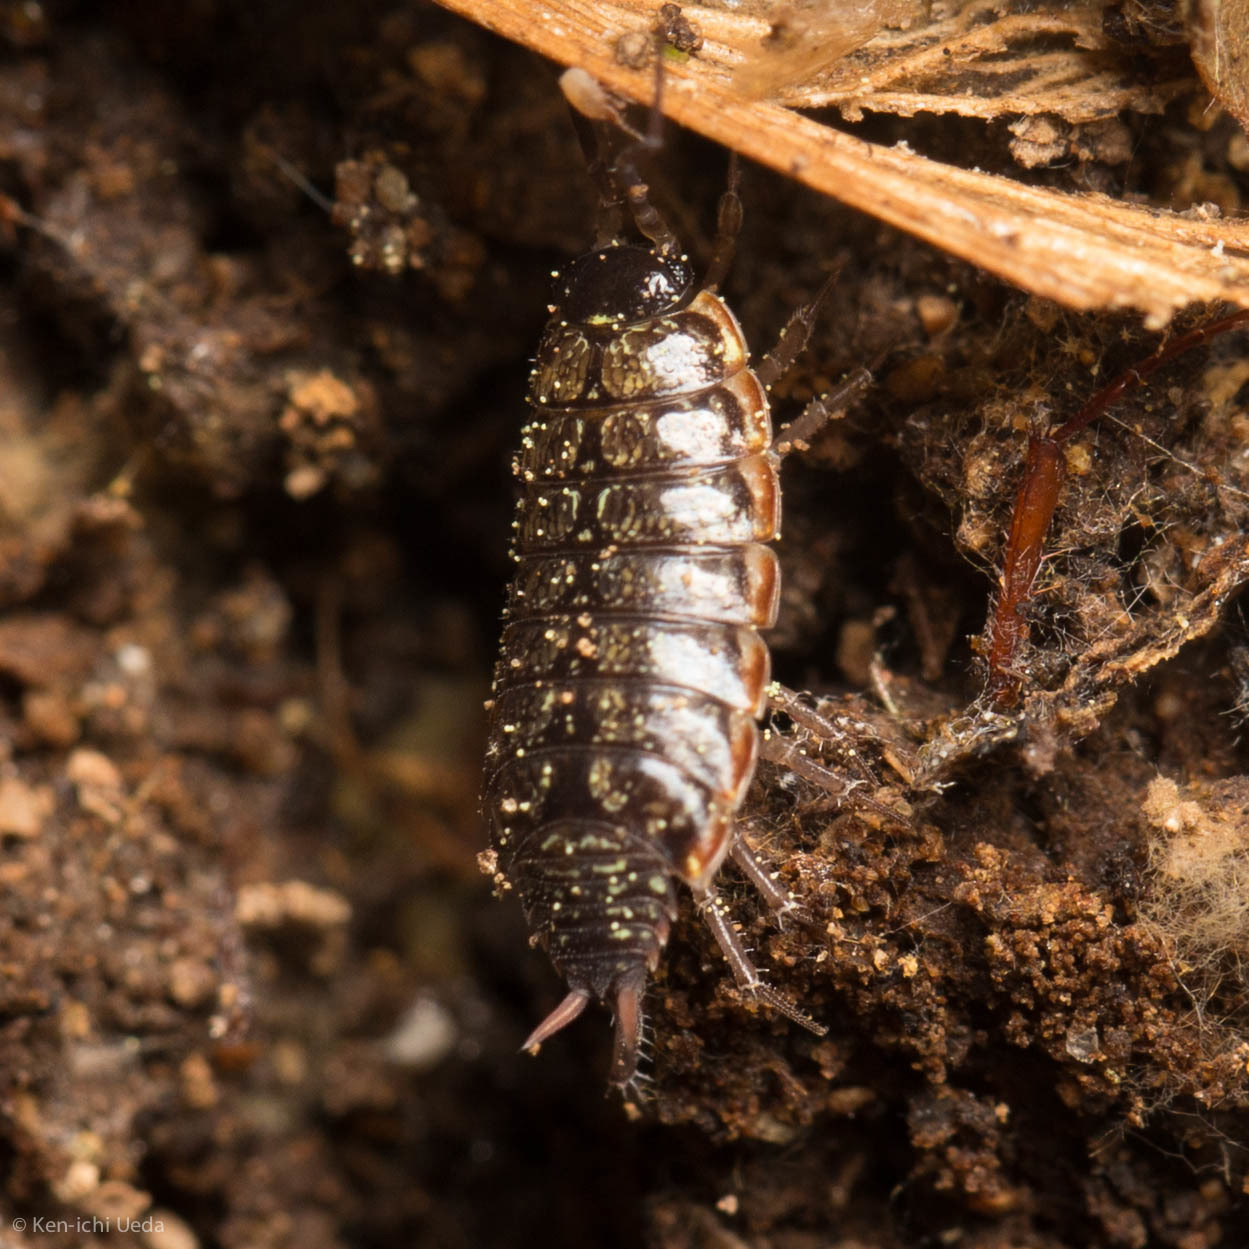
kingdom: Animalia
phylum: Arthropoda
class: Malacostraca
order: Isopoda
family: Philosciidae
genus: Philoscia
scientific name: Philoscia muscorum
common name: Common striped woodlouse
